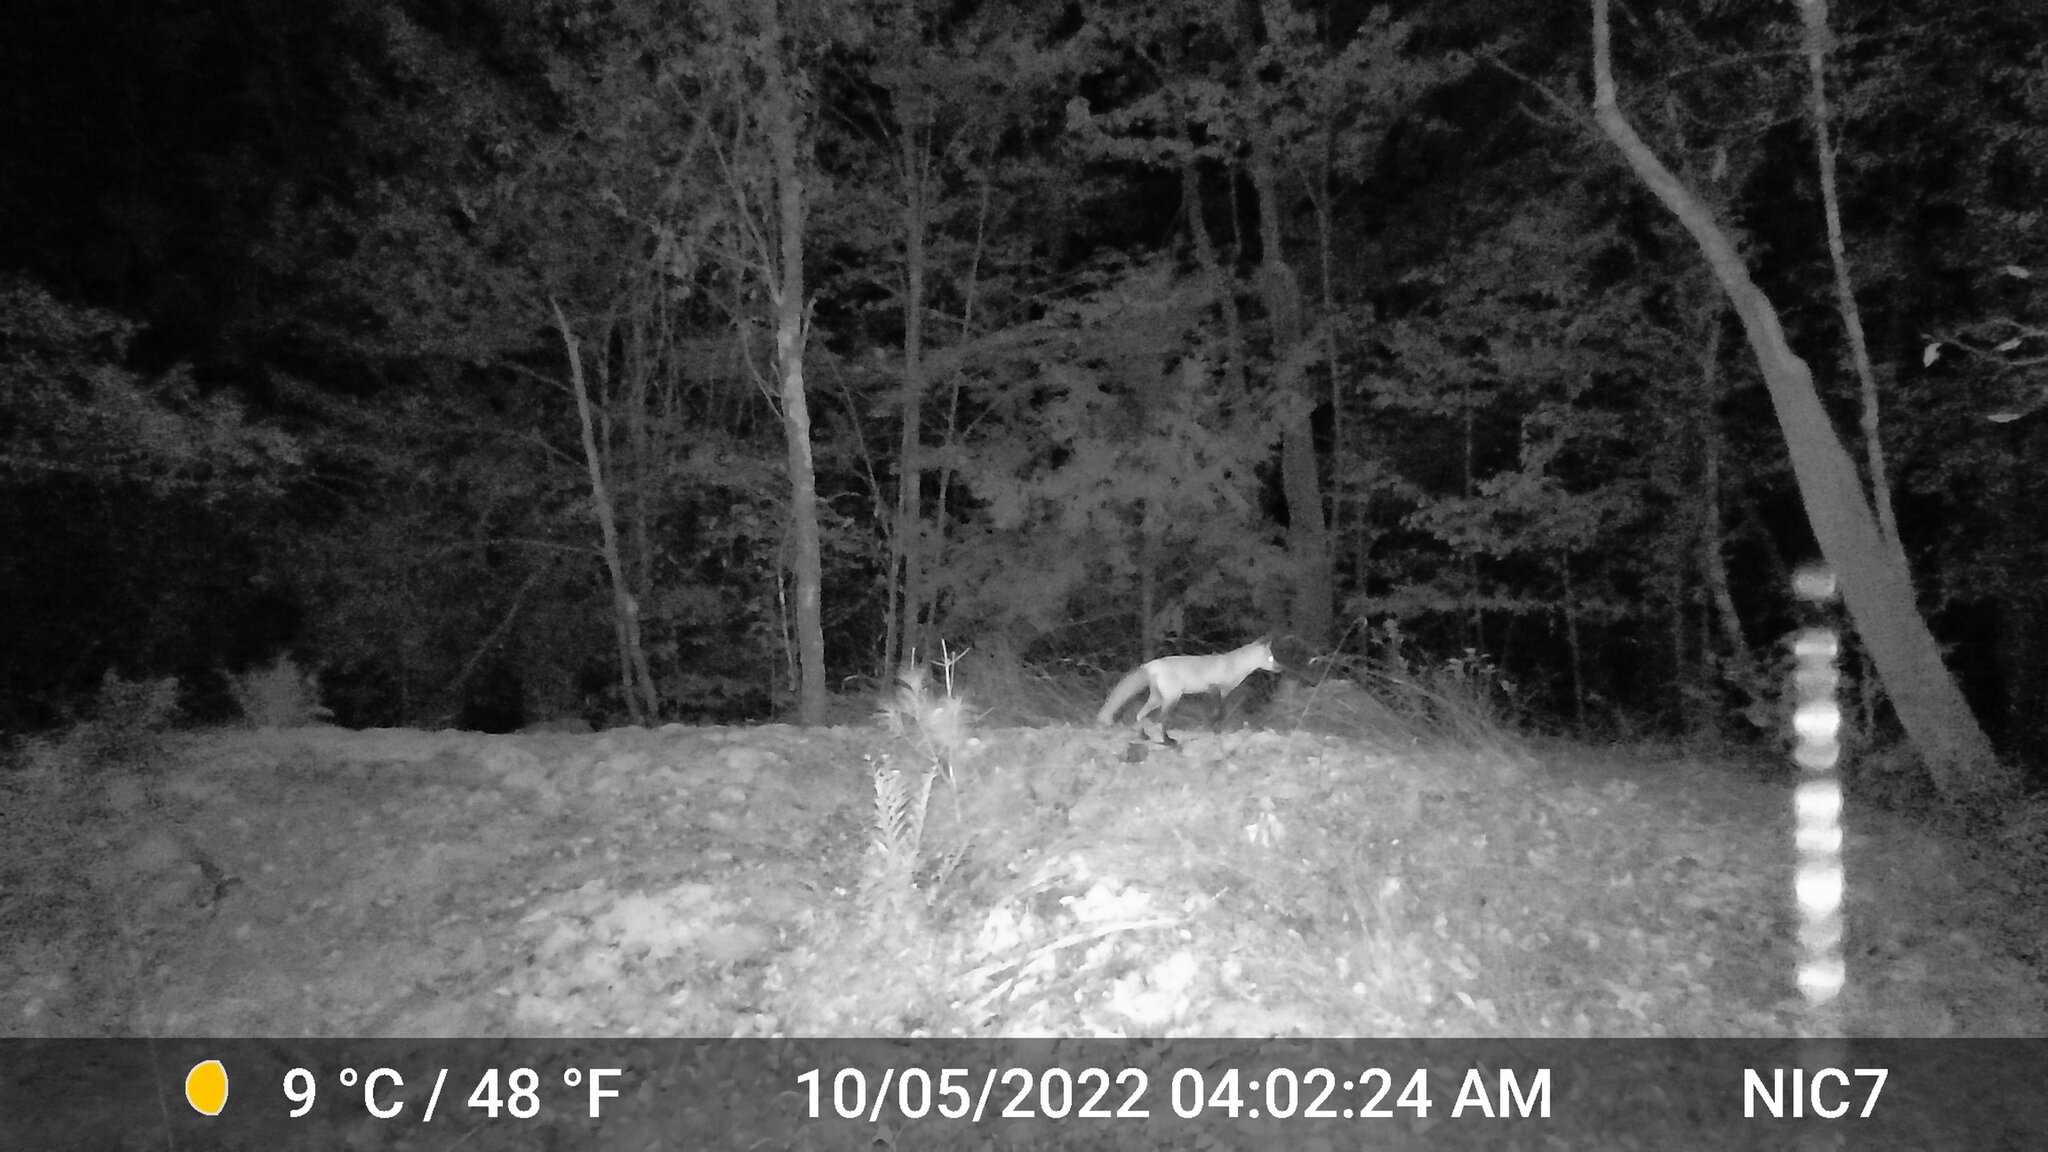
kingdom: Animalia
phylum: Chordata
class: Mammalia
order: Carnivora
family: Canidae
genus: Vulpes
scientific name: Vulpes vulpes
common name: Red fox
